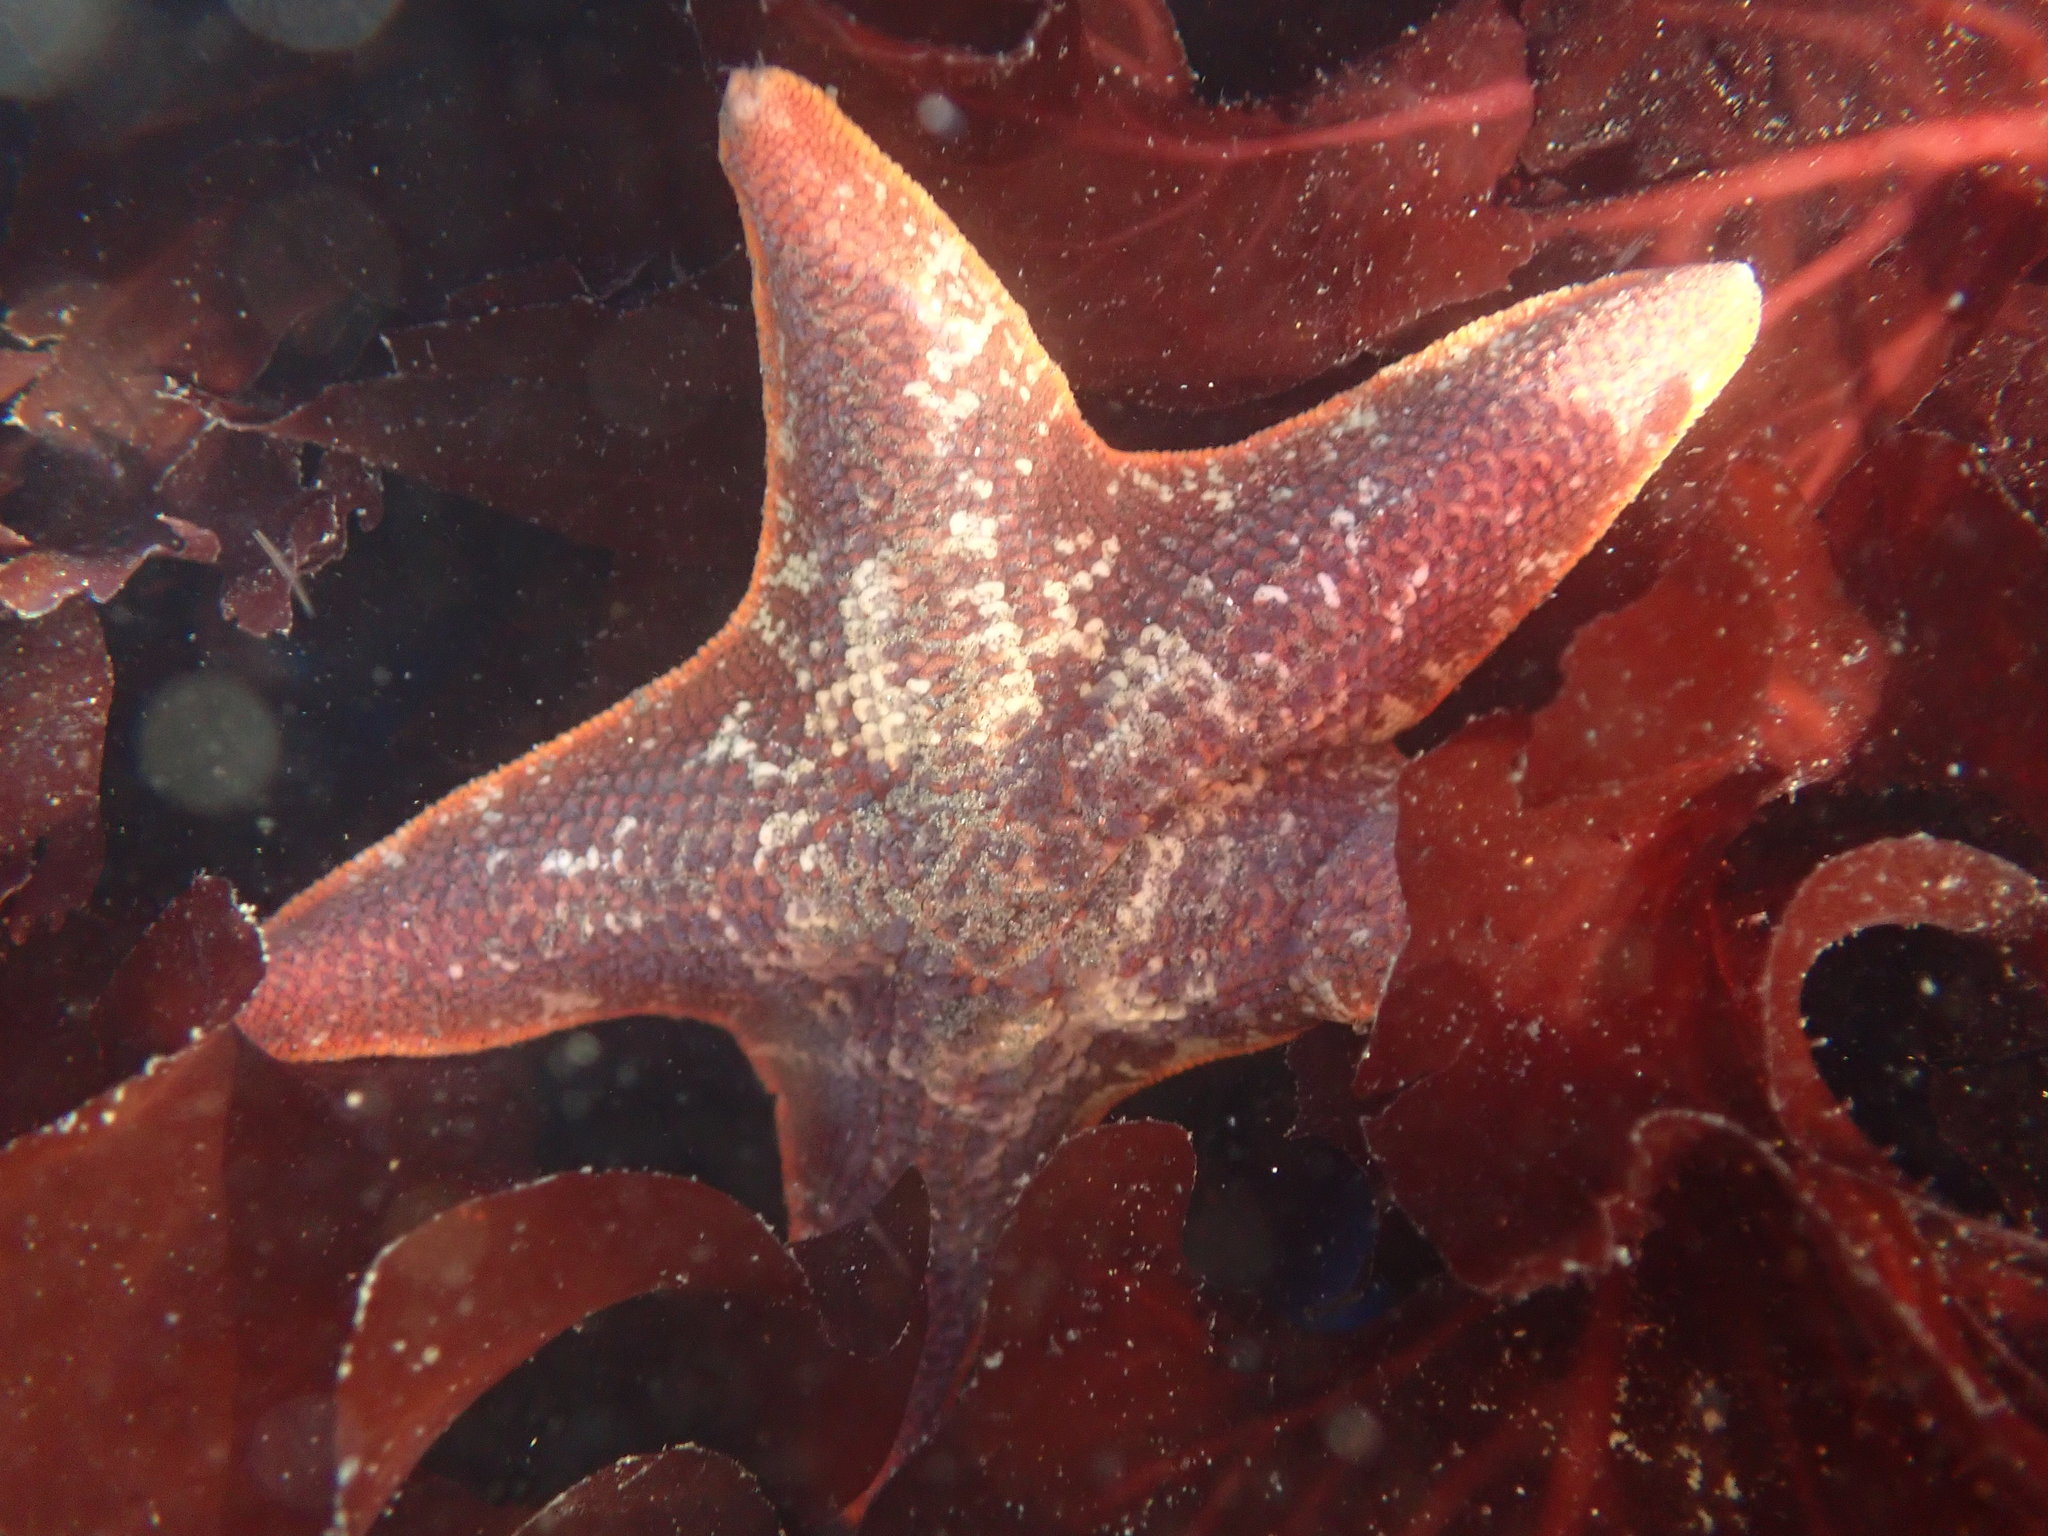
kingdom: Animalia
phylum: Echinodermata
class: Asteroidea
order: Valvatida
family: Asterinidae
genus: Patiria
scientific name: Patiria miniata
